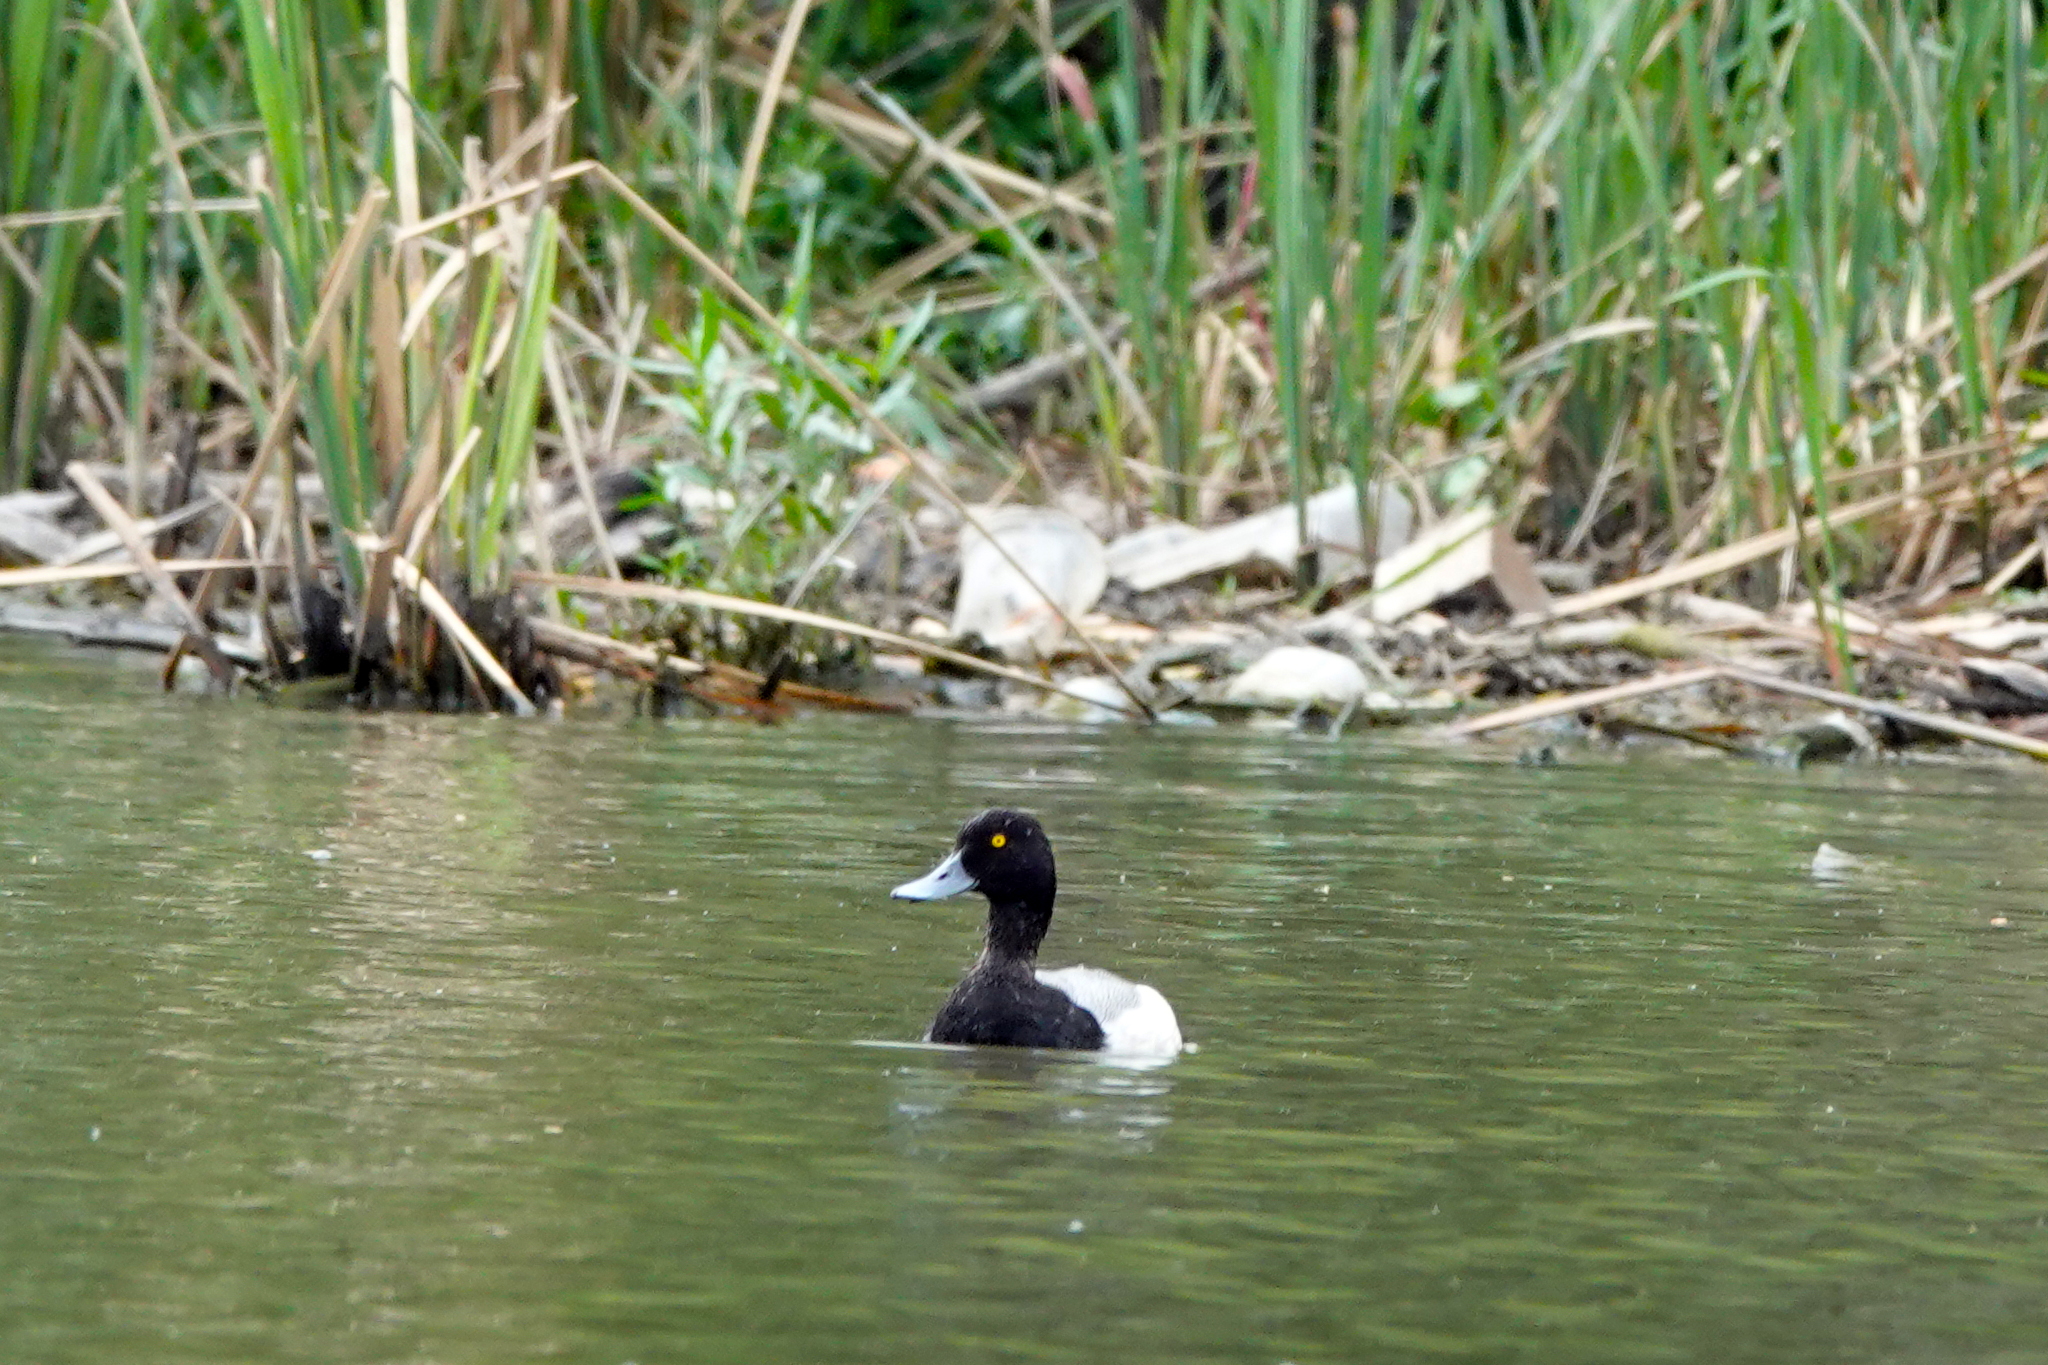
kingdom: Animalia
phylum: Chordata
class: Aves
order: Anseriformes
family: Anatidae
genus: Aythya
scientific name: Aythya affinis
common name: Lesser scaup
